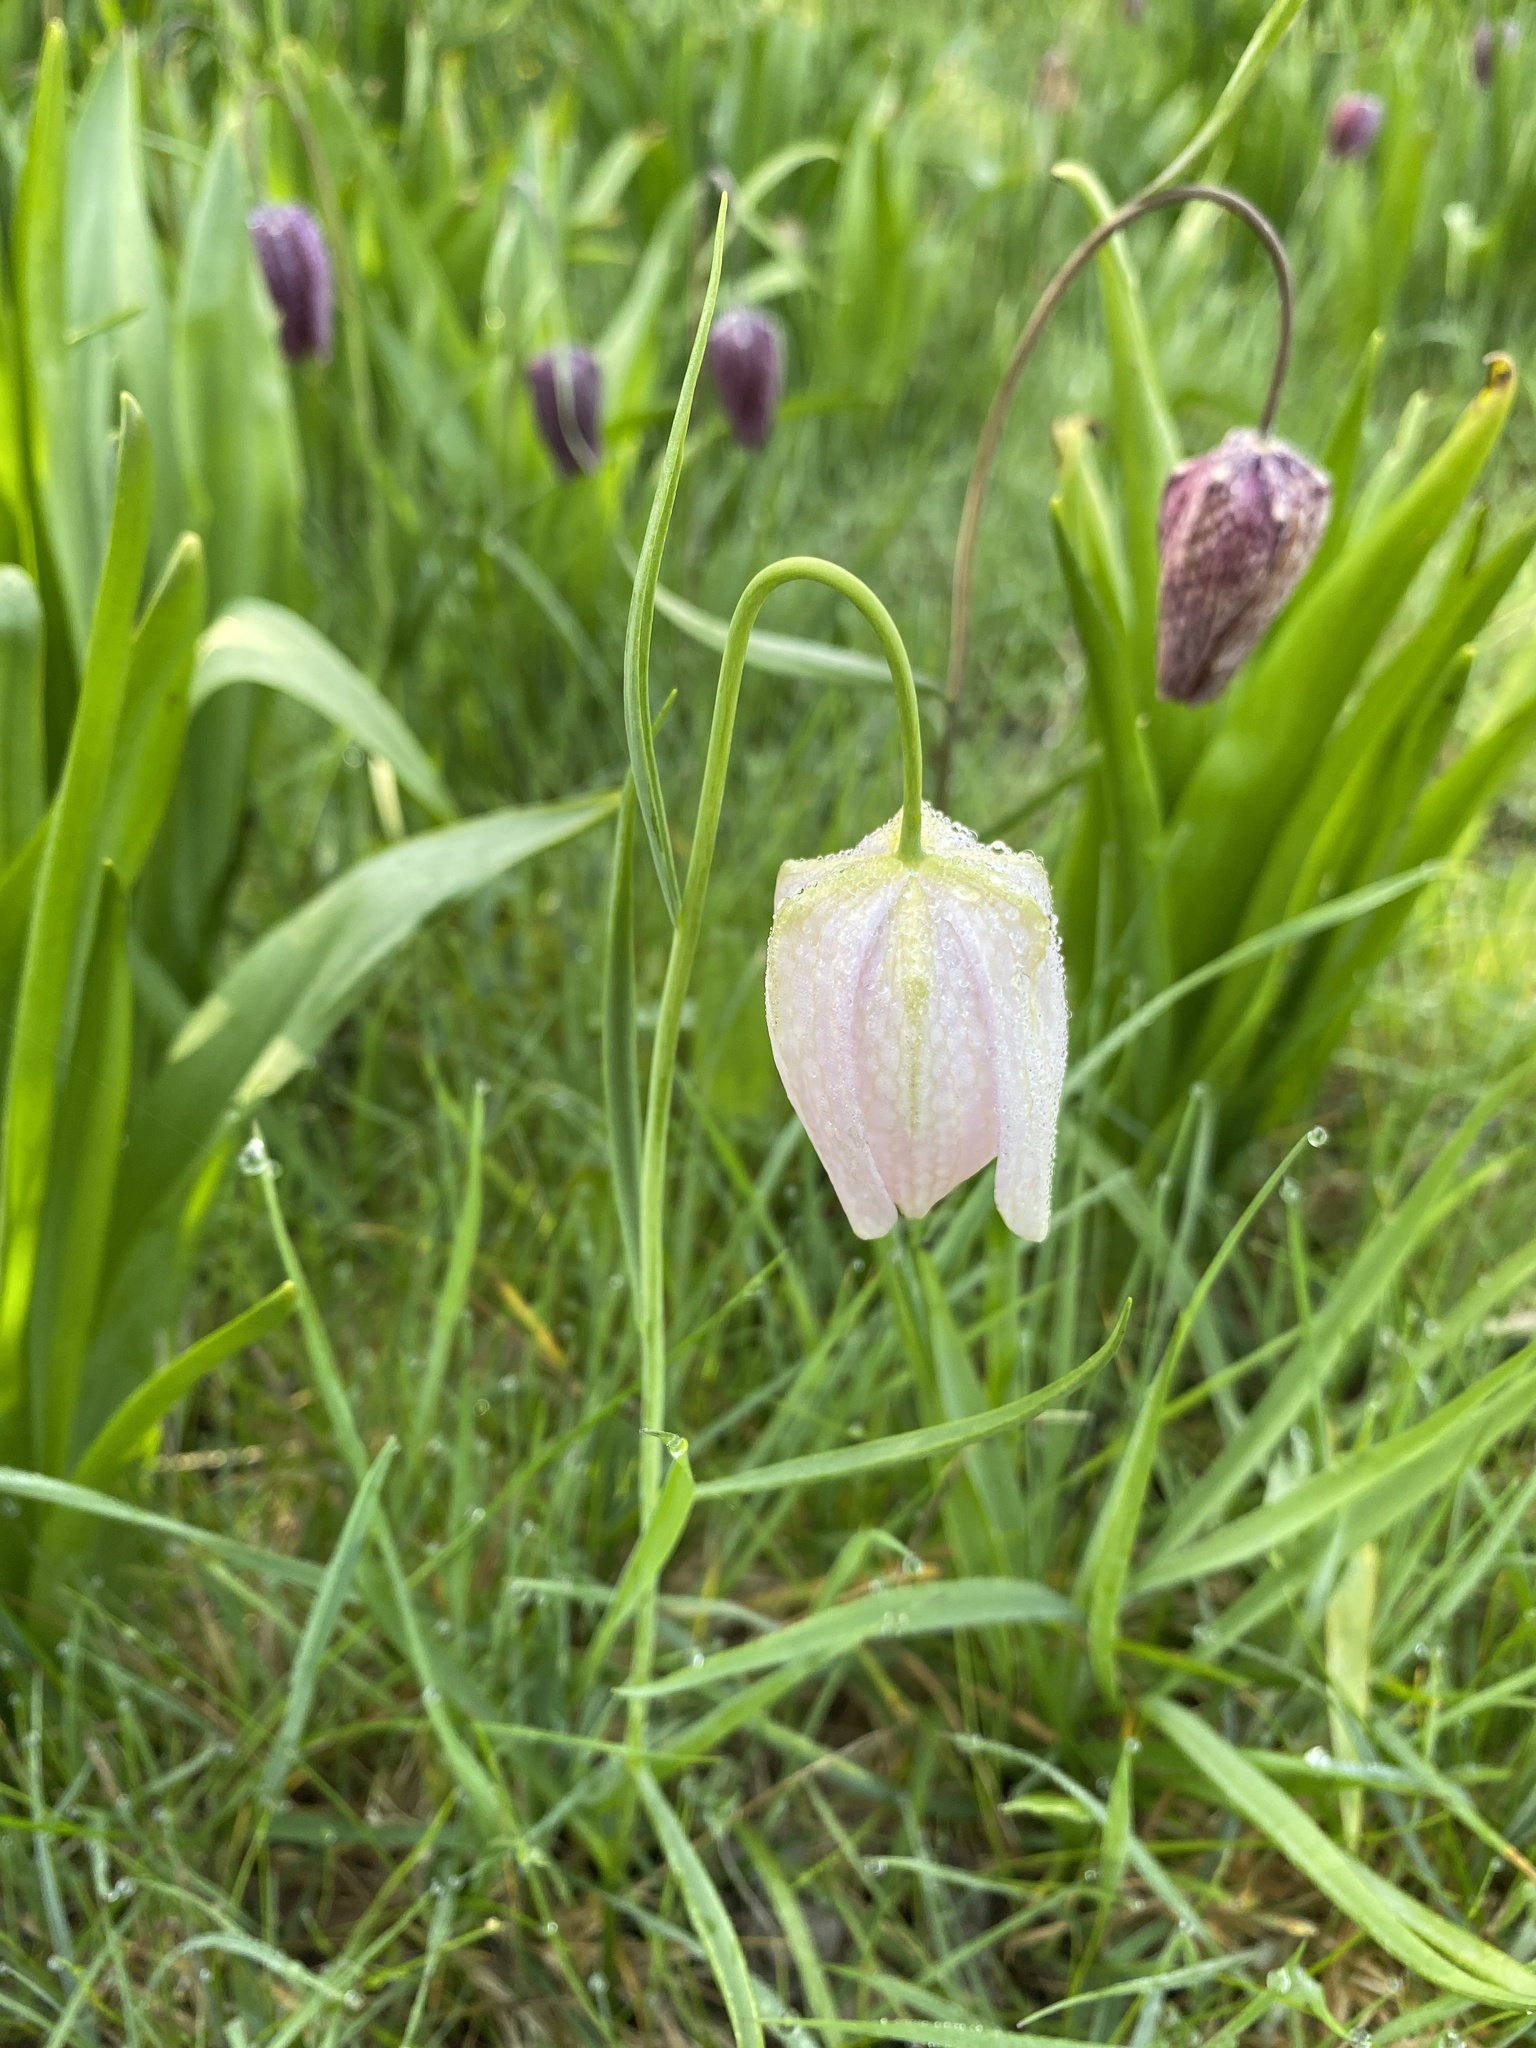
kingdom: Plantae
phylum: Tracheophyta
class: Liliopsida
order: Liliales
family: Liliaceae
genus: Fritillaria
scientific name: Fritillaria meleagris
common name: Fritillary
